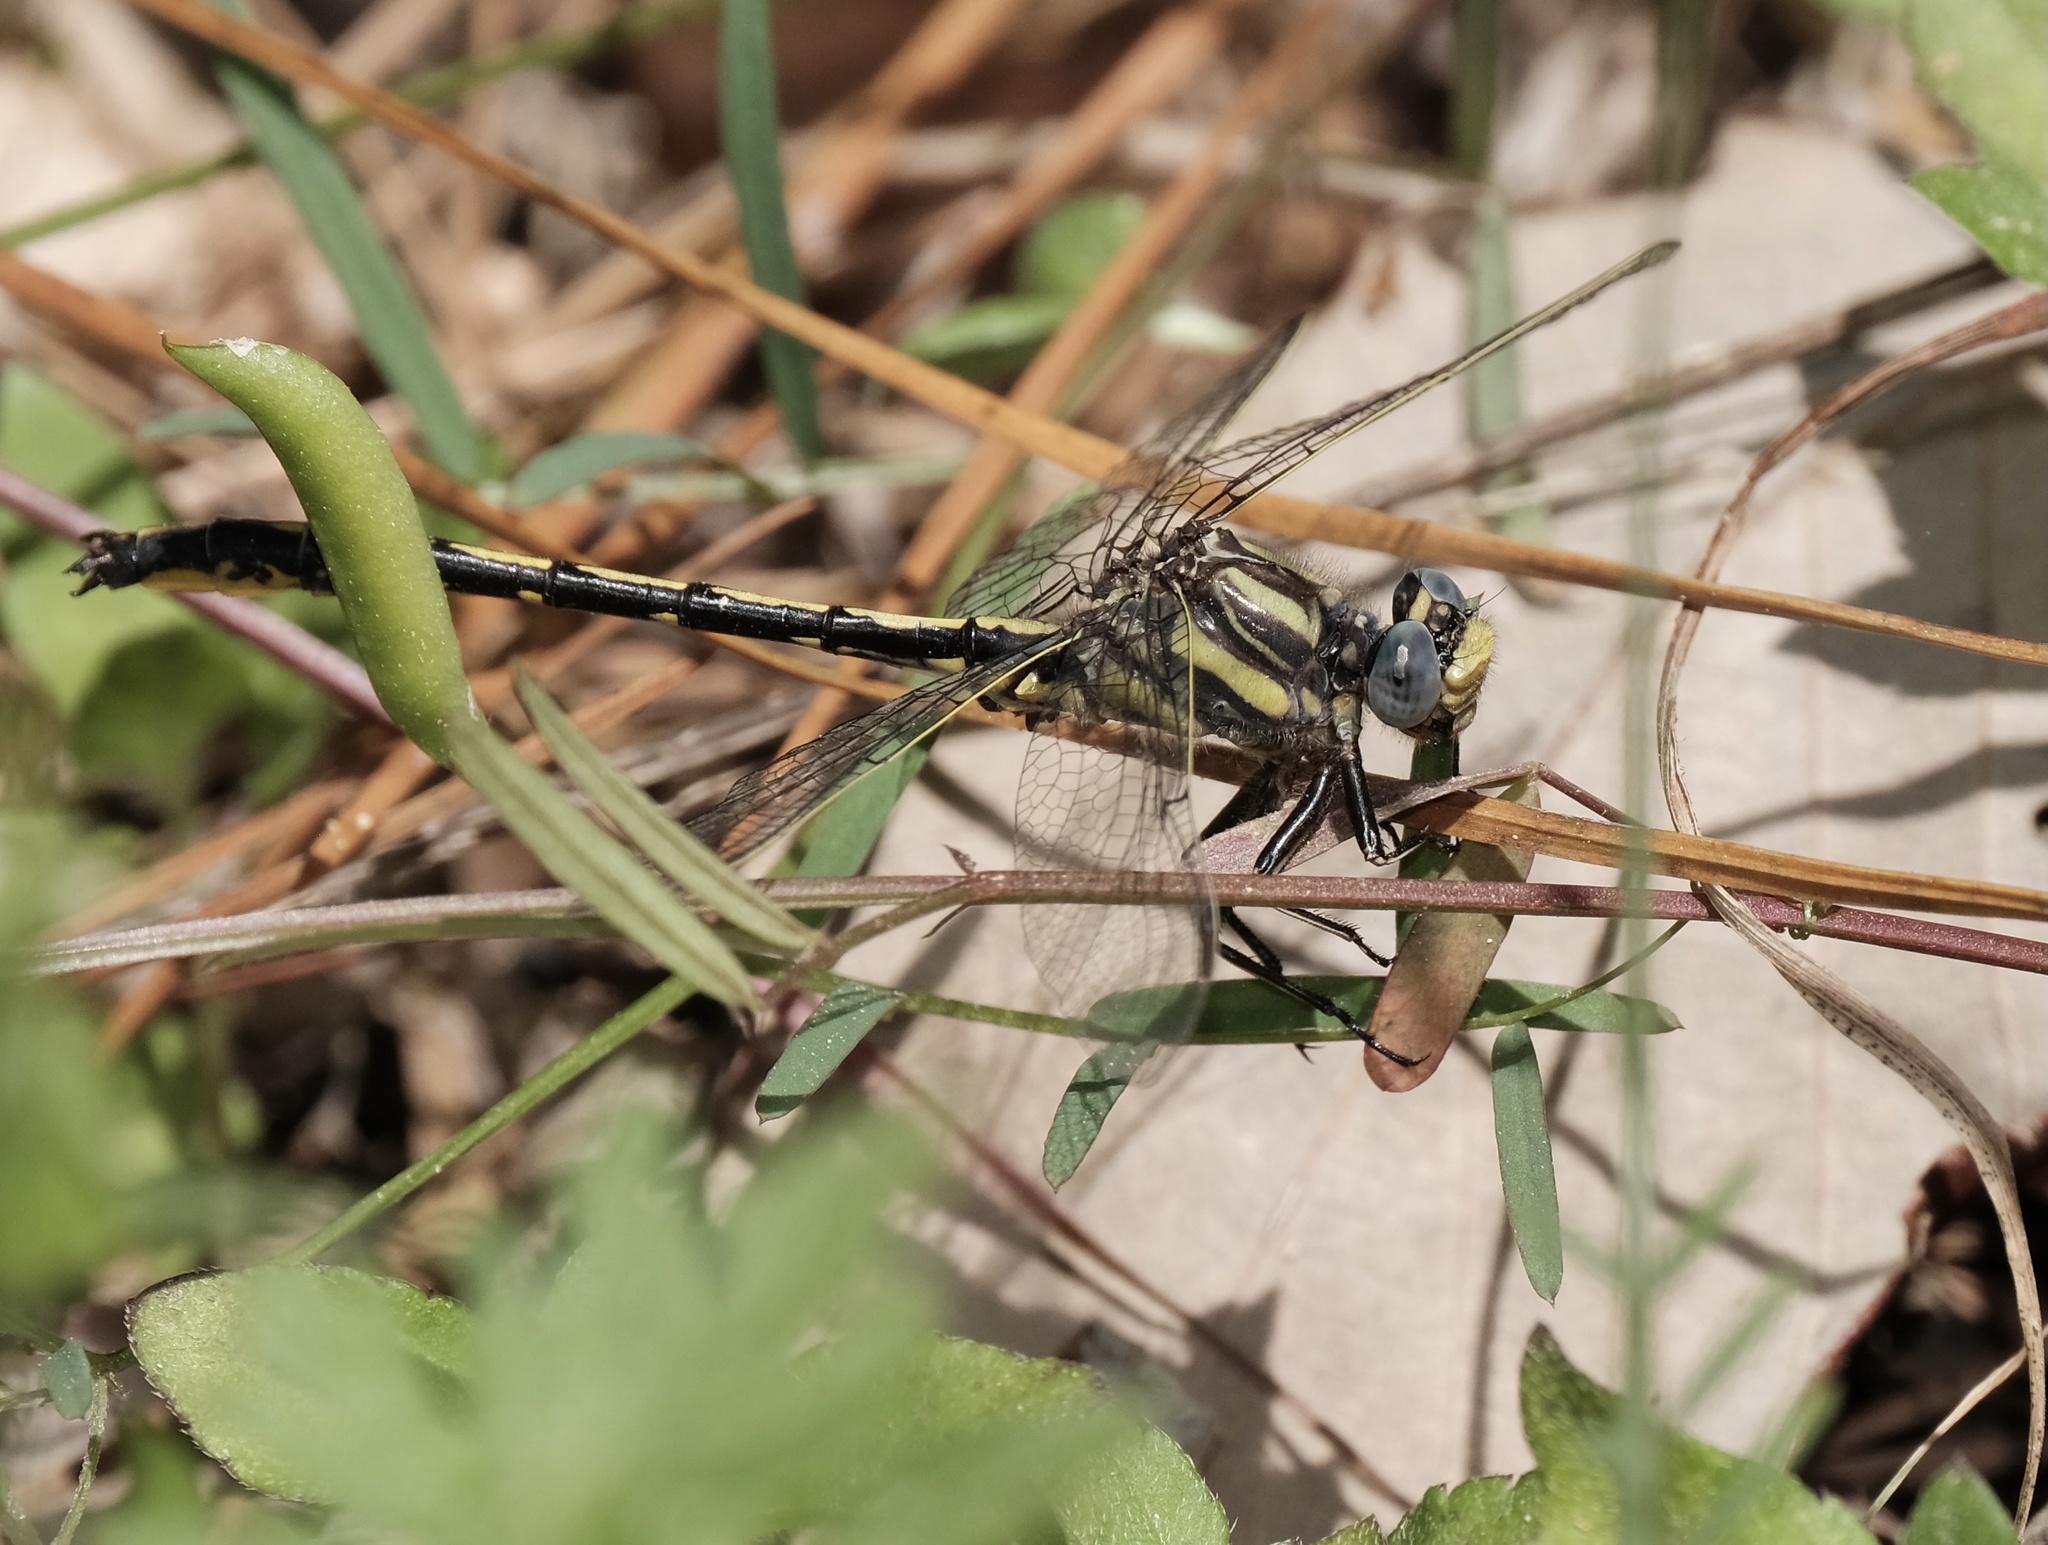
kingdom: Animalia
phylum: Arthropoda
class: Insecta
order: Odonata
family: Gomphidae
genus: Phanogomphus
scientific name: Phanogomphus oklahomensis
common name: Oklahoma clubtail
